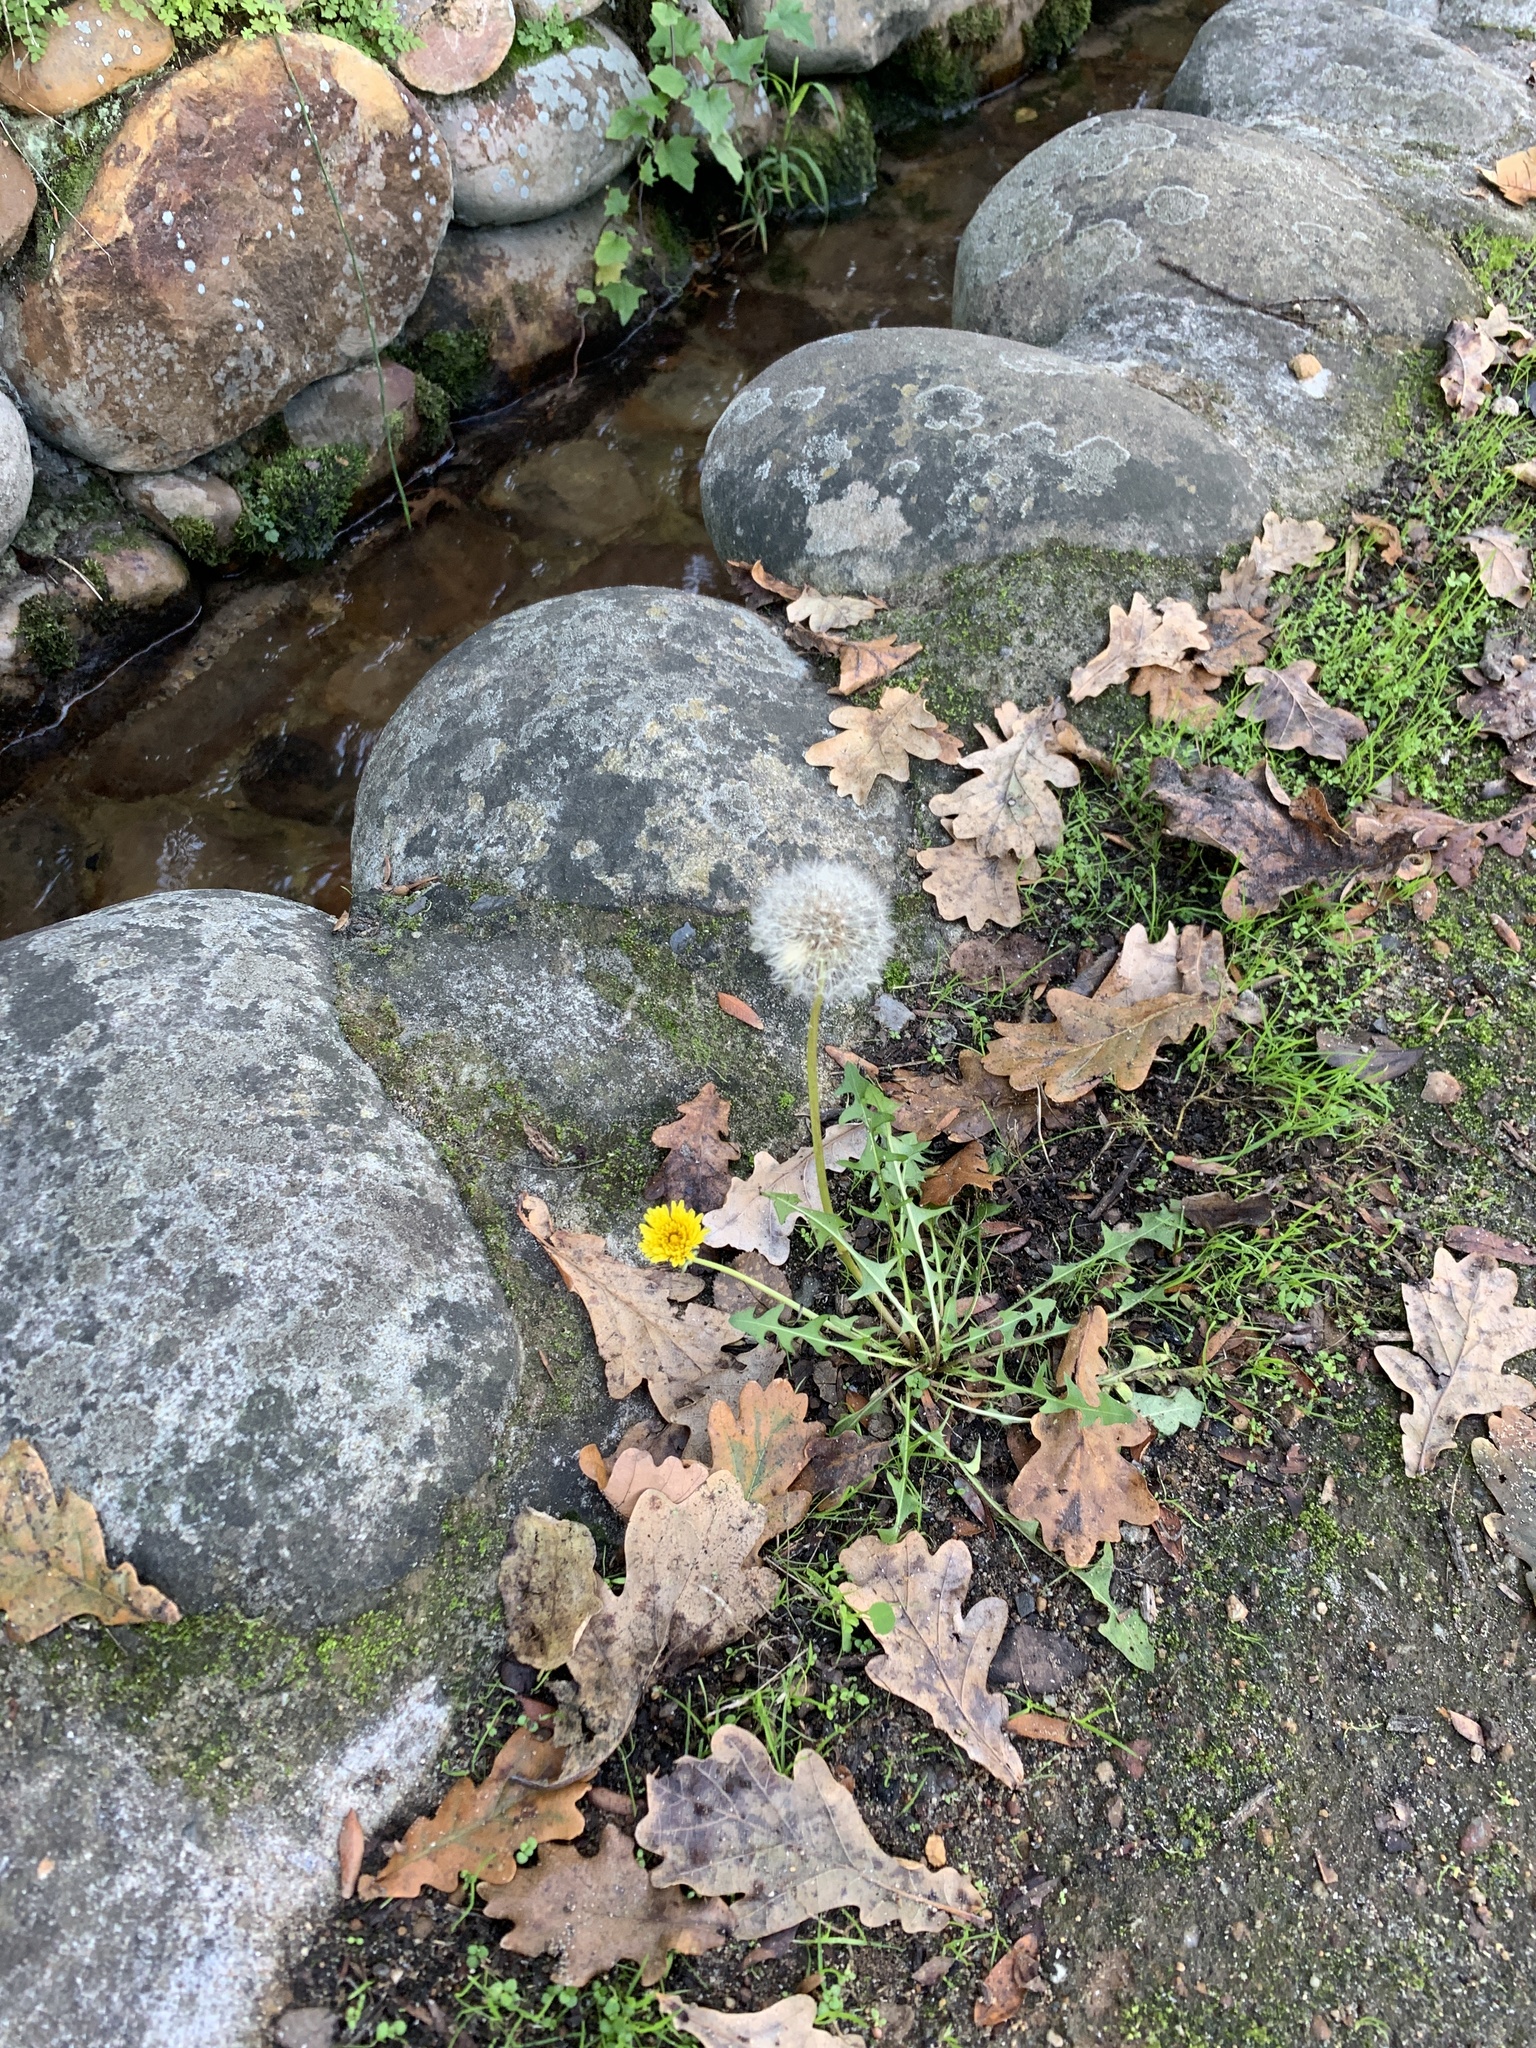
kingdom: Plantae
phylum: Tracheophyta
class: Magnoliopsida
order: Asterales
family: Asteraceae
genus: Taraxacum
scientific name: Taraxacum officinale
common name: Common dandelion
